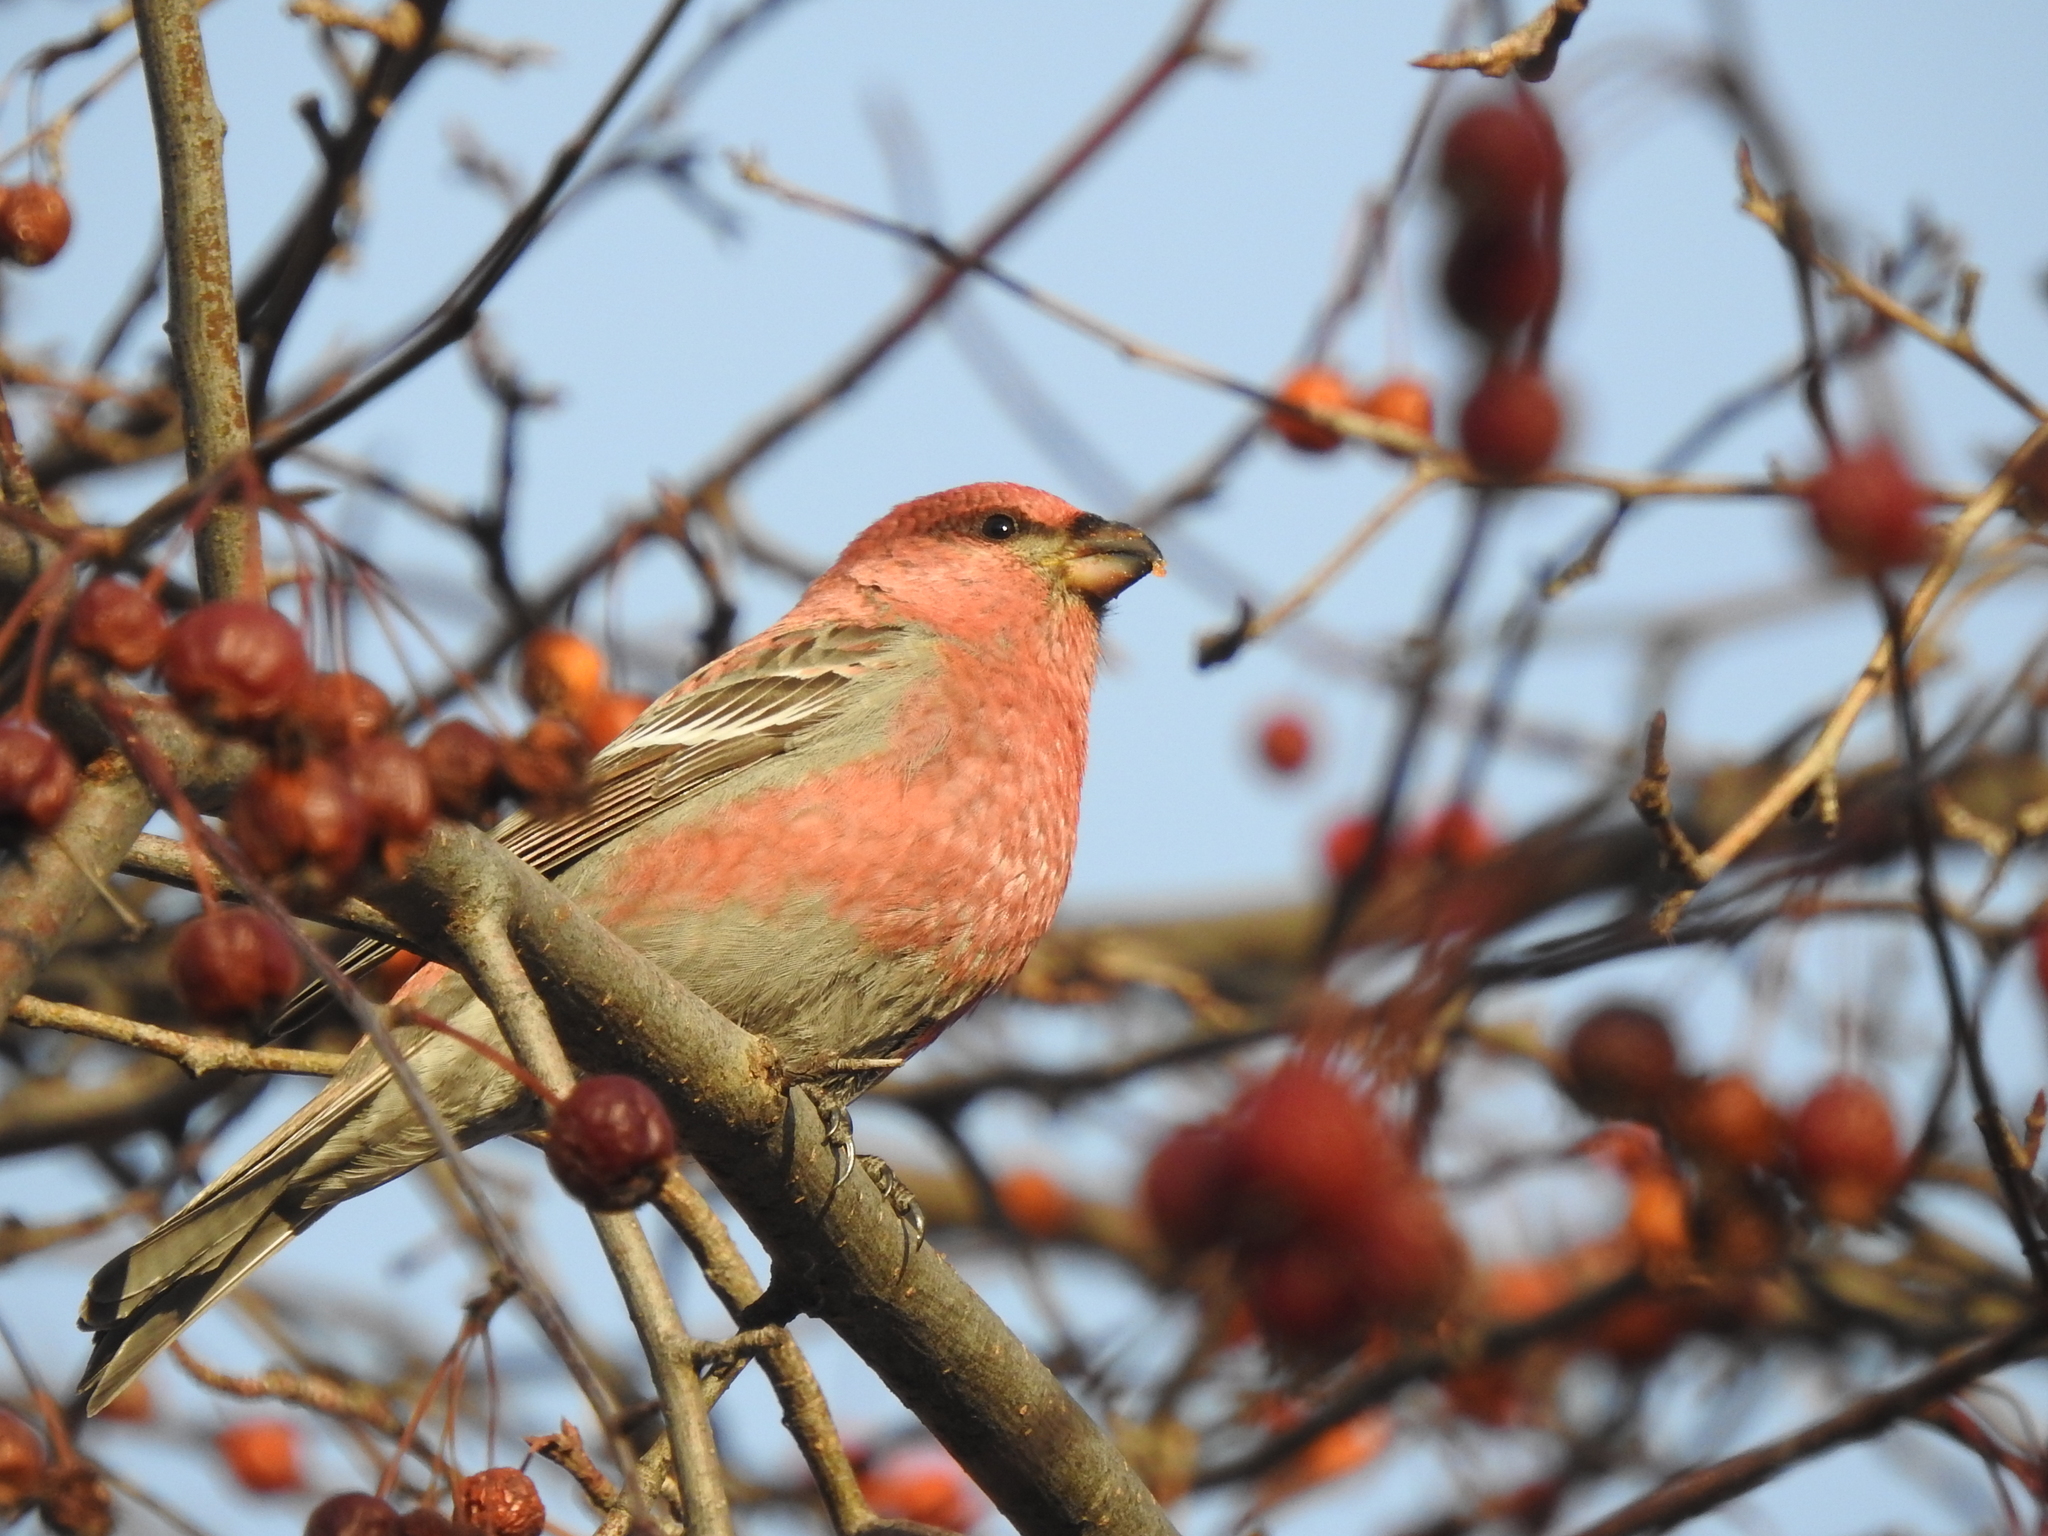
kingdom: Animalia
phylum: Chordata
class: Aves
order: Passeriformes
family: Fringillidae
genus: Pinicola
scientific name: Pinicola enucleator
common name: Pine grosbeak
